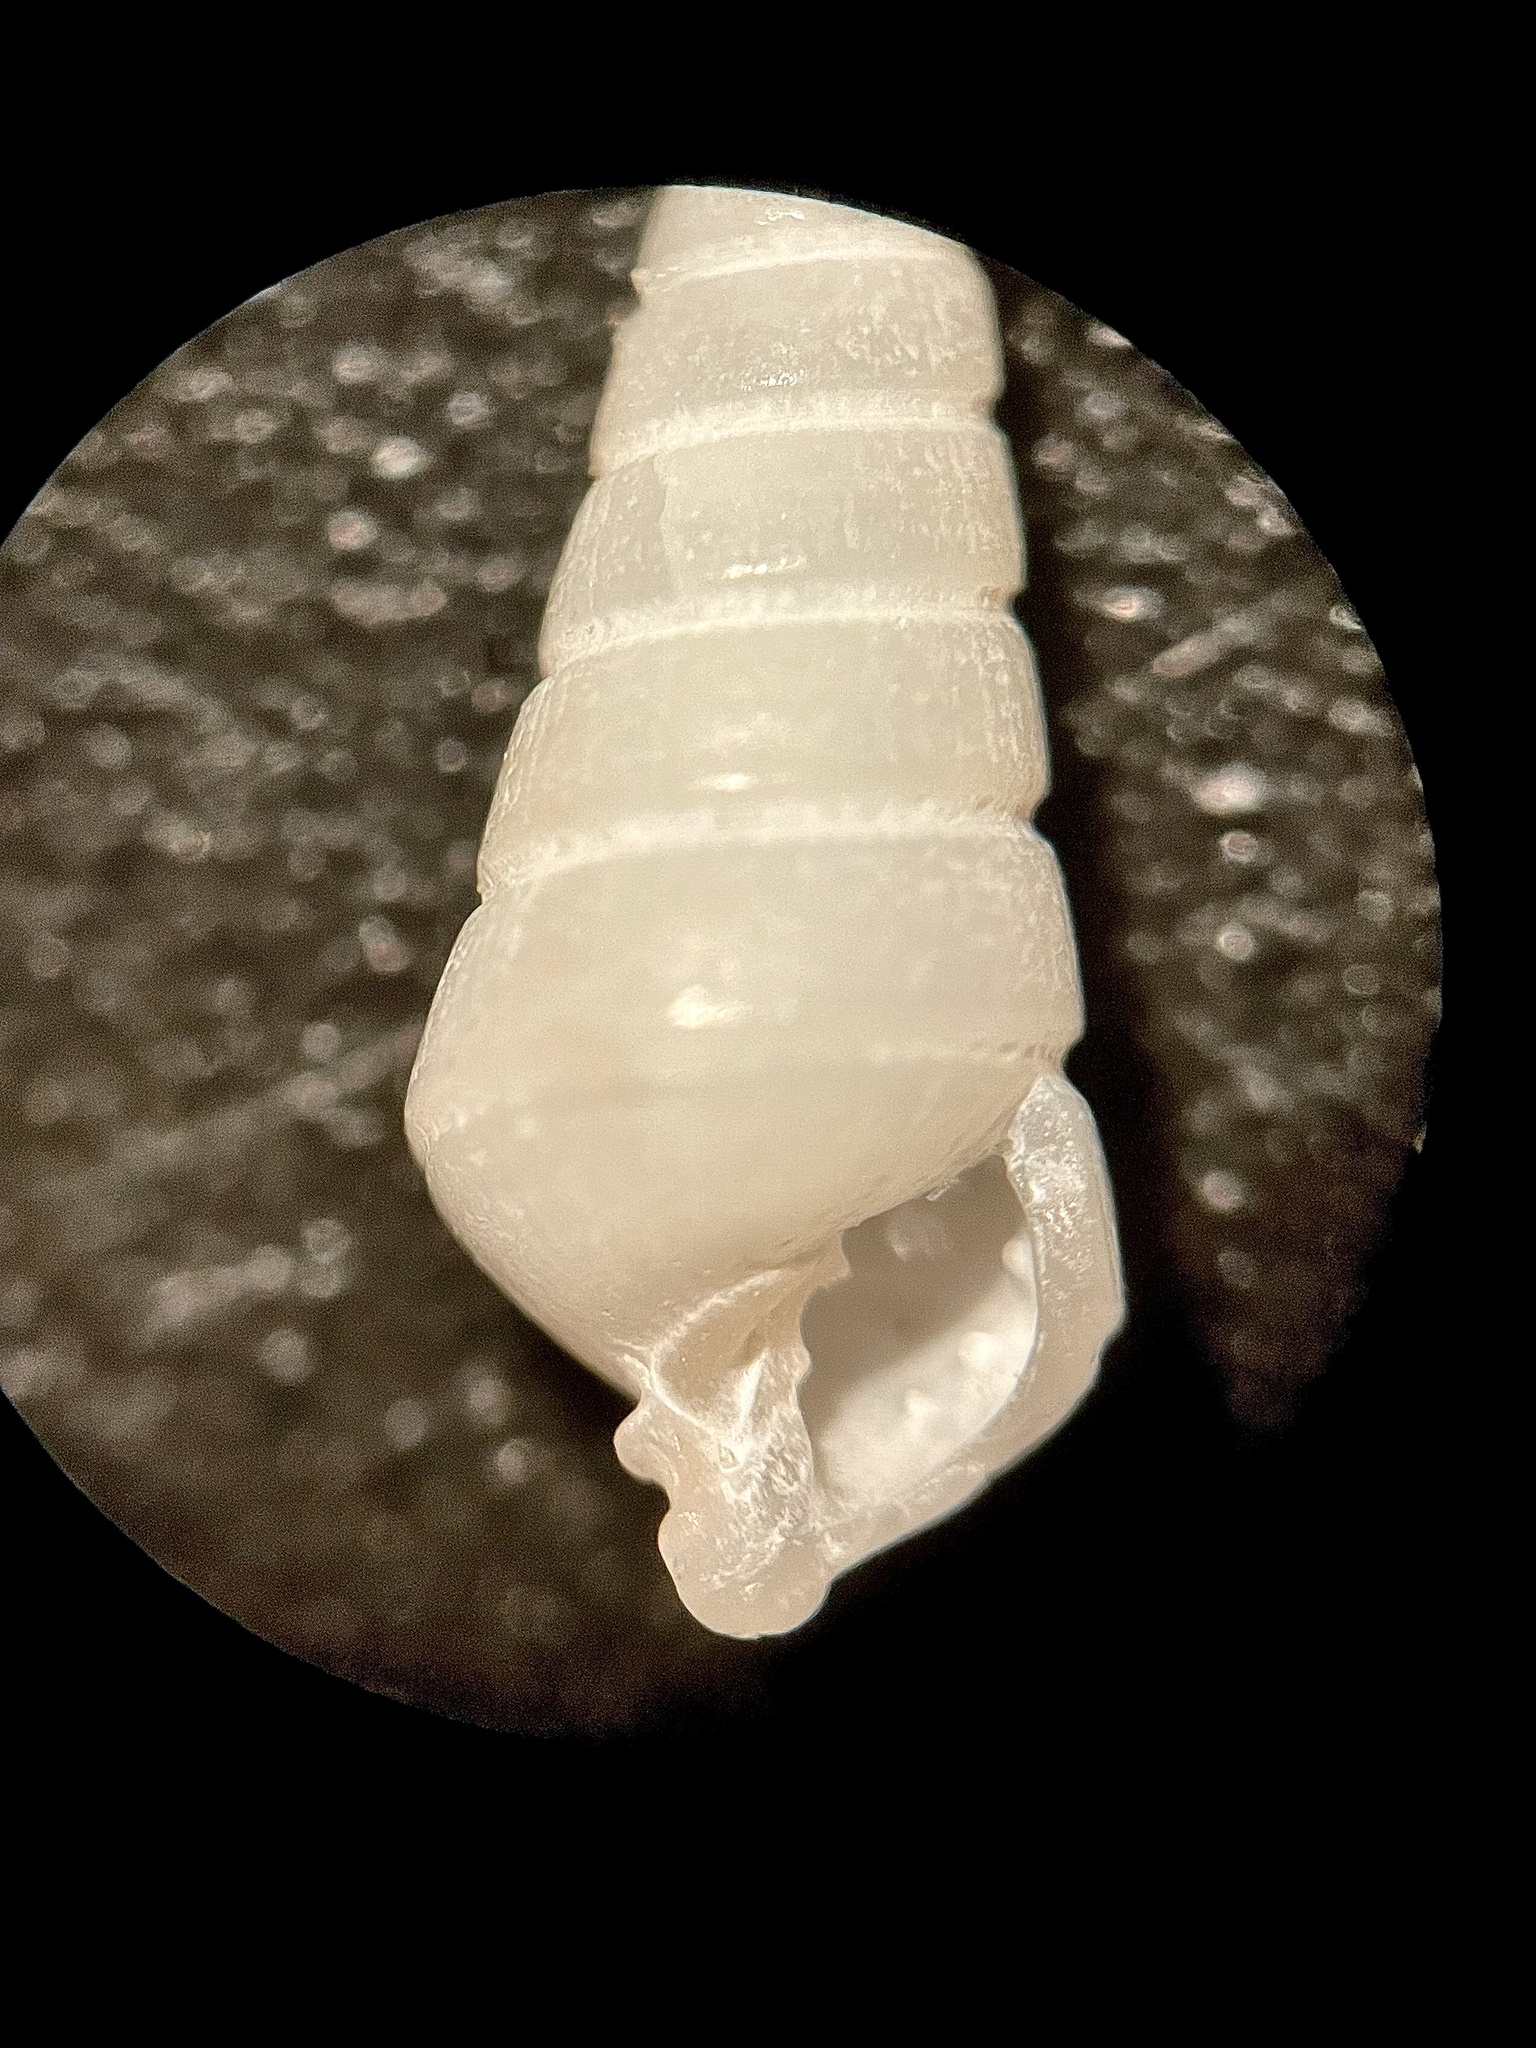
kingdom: Animalia
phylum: Mollusca
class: Gastropoda
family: Pyramidellidae
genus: Longchaeus
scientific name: Longchaeus suturalis
